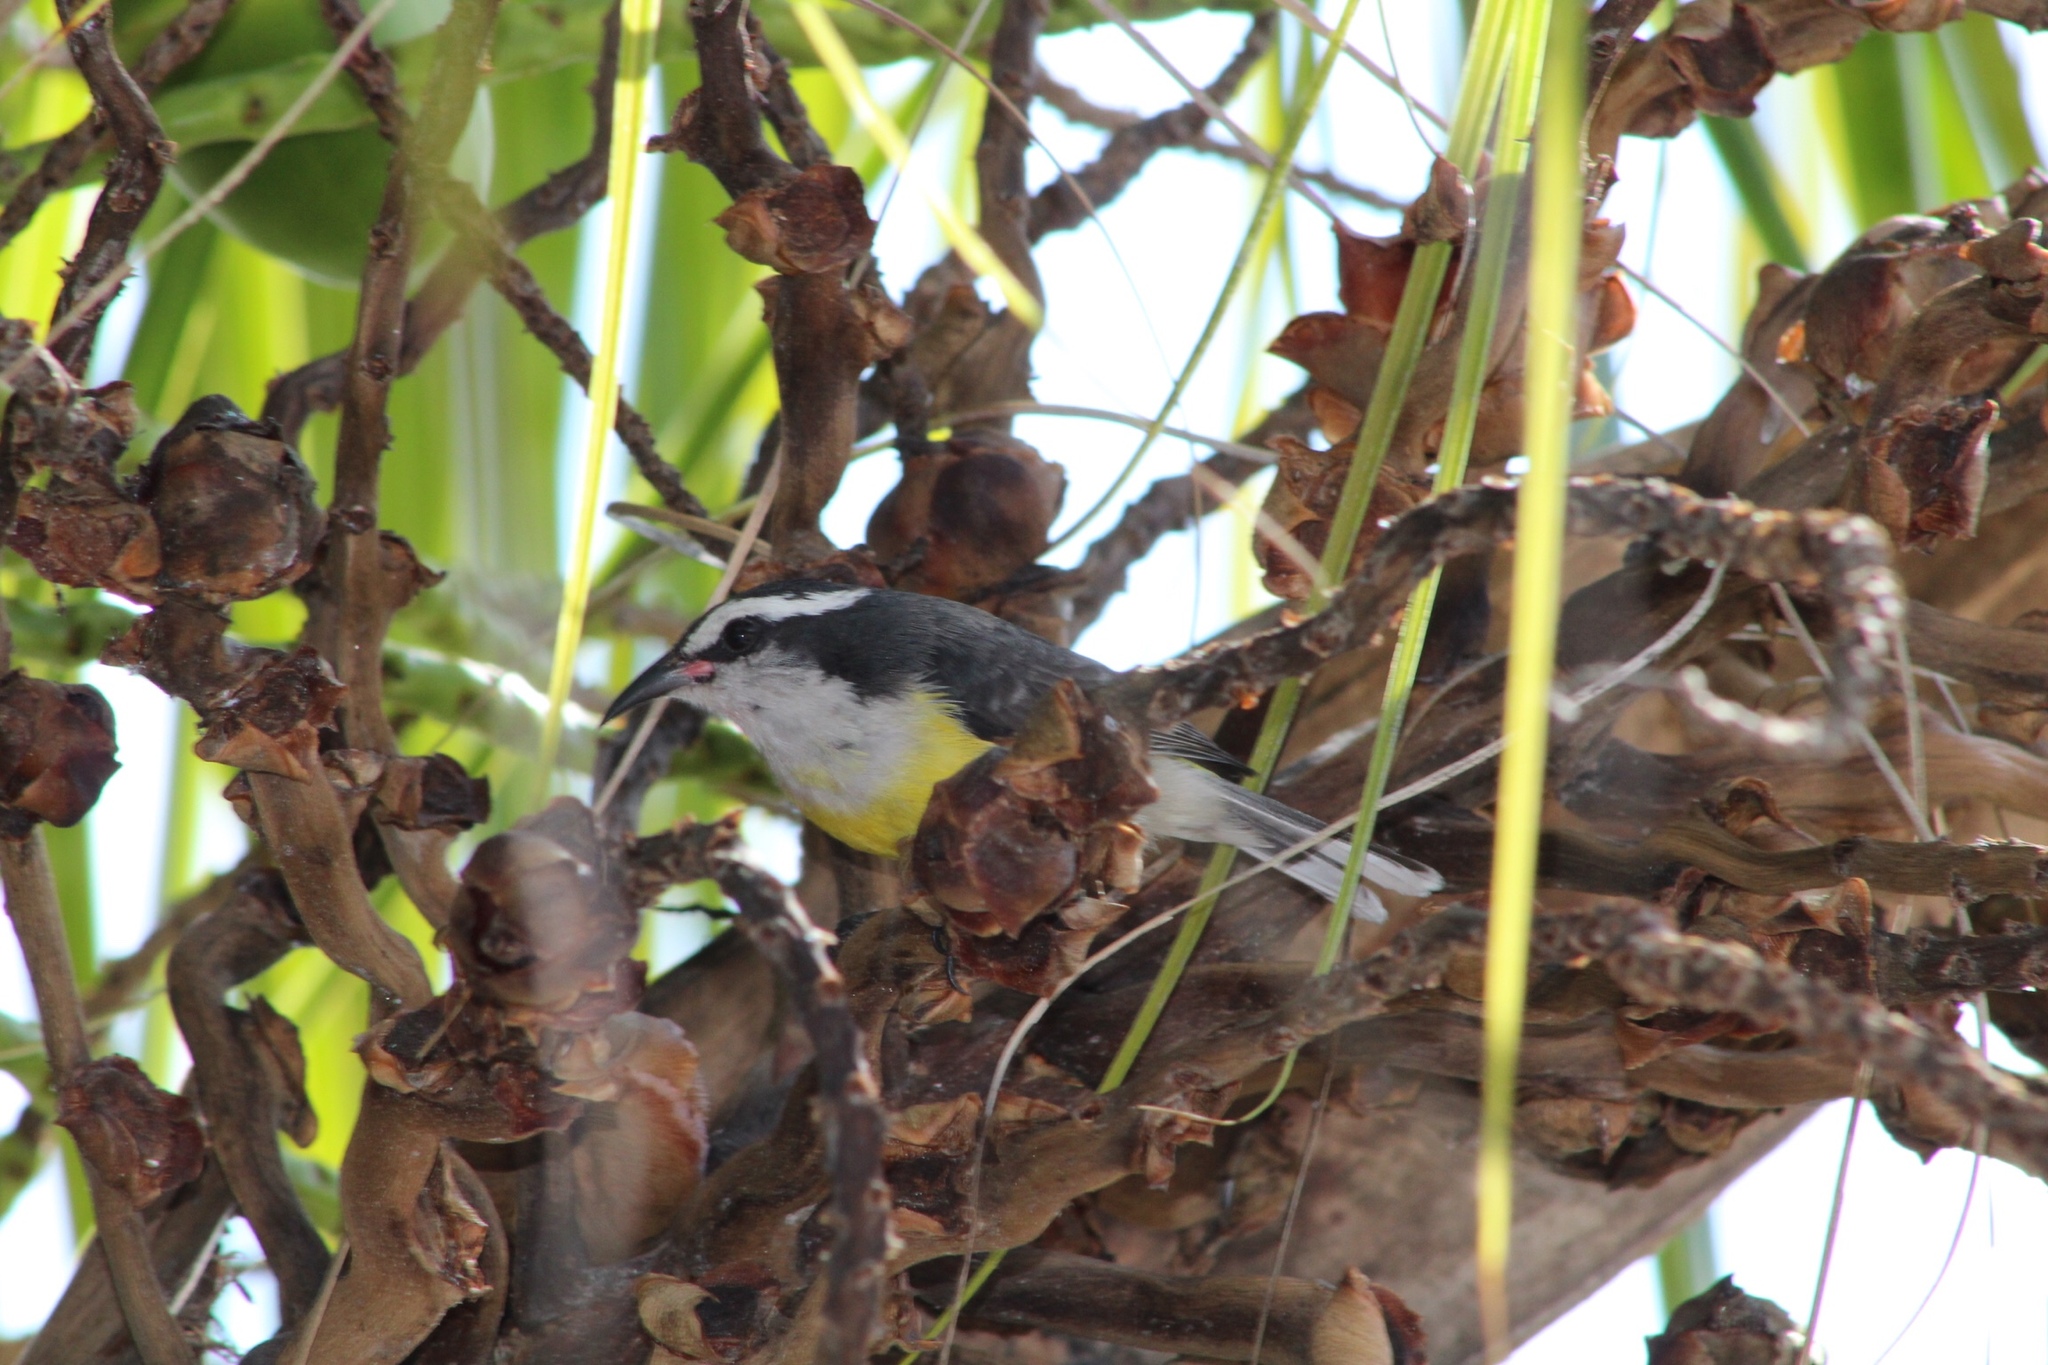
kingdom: Animalia
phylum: Chordata
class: Aves
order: Passeriformes
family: Thraupidae
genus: Coereba
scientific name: Coereba flaveola
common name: Bananaquit
